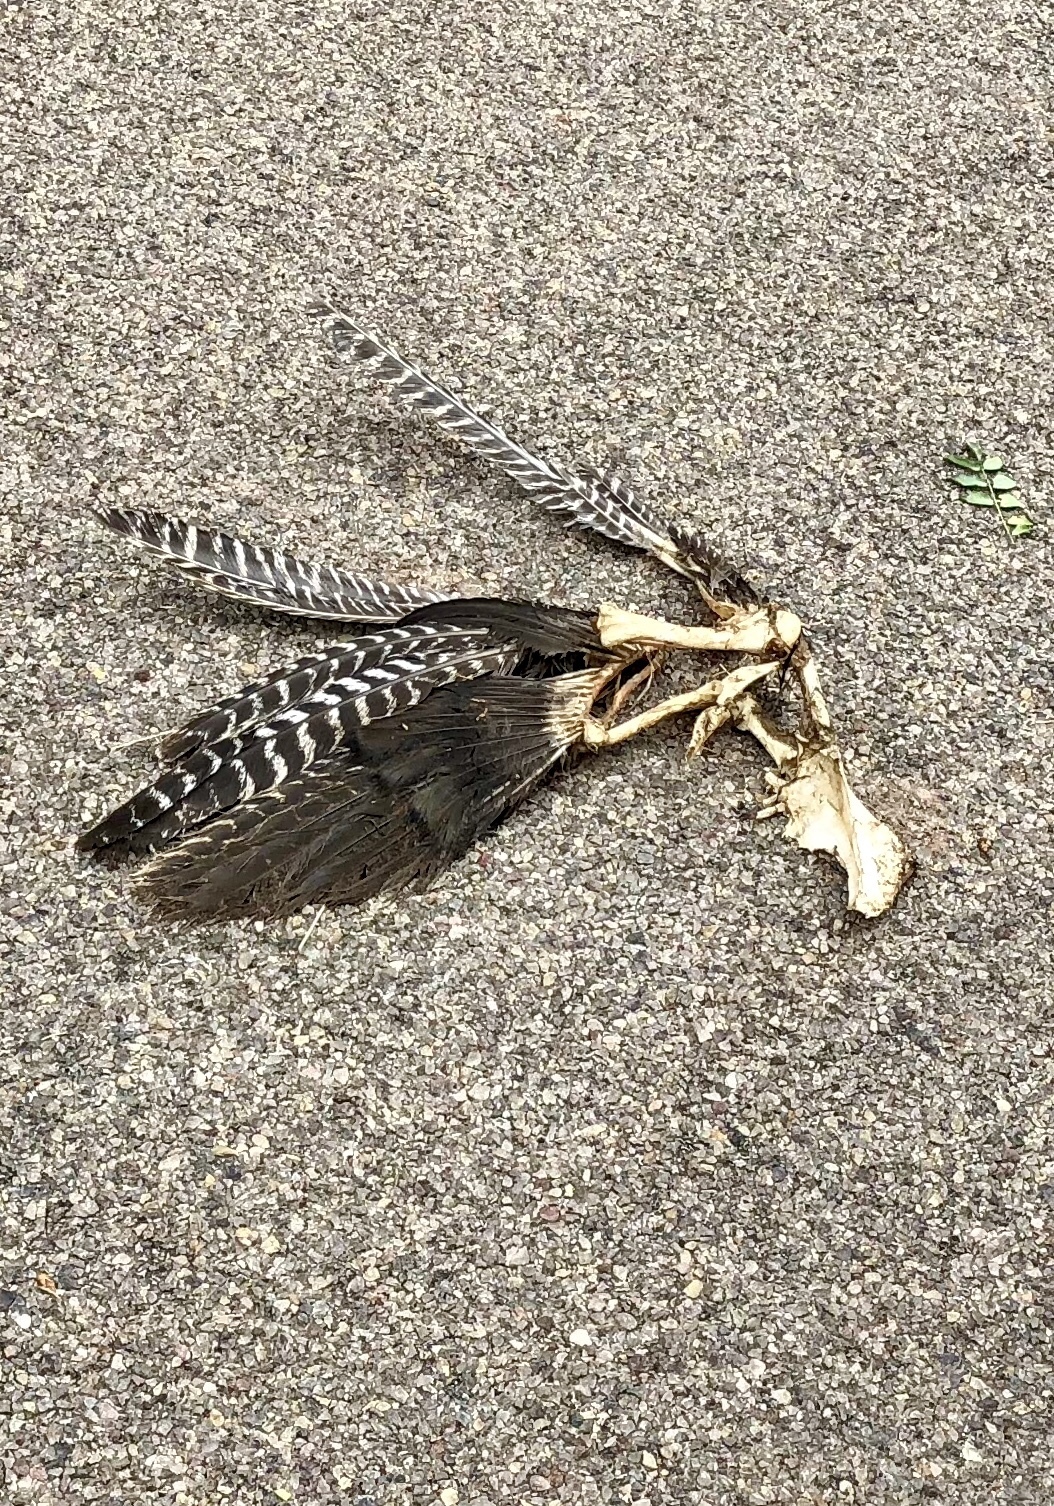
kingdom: Animalia
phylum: Chordata
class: Aves
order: Galliformes
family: Phasianidae
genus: Meleagris
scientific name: Meleagris gallopavo
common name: Wild turkey
